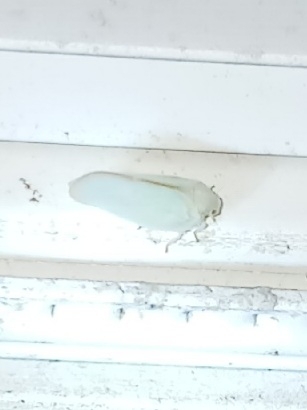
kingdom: Animalia
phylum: Arthropoda
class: Insecta
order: Hemiptera
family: Flatidae
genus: Ormenoides
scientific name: Ormenoides venusta
